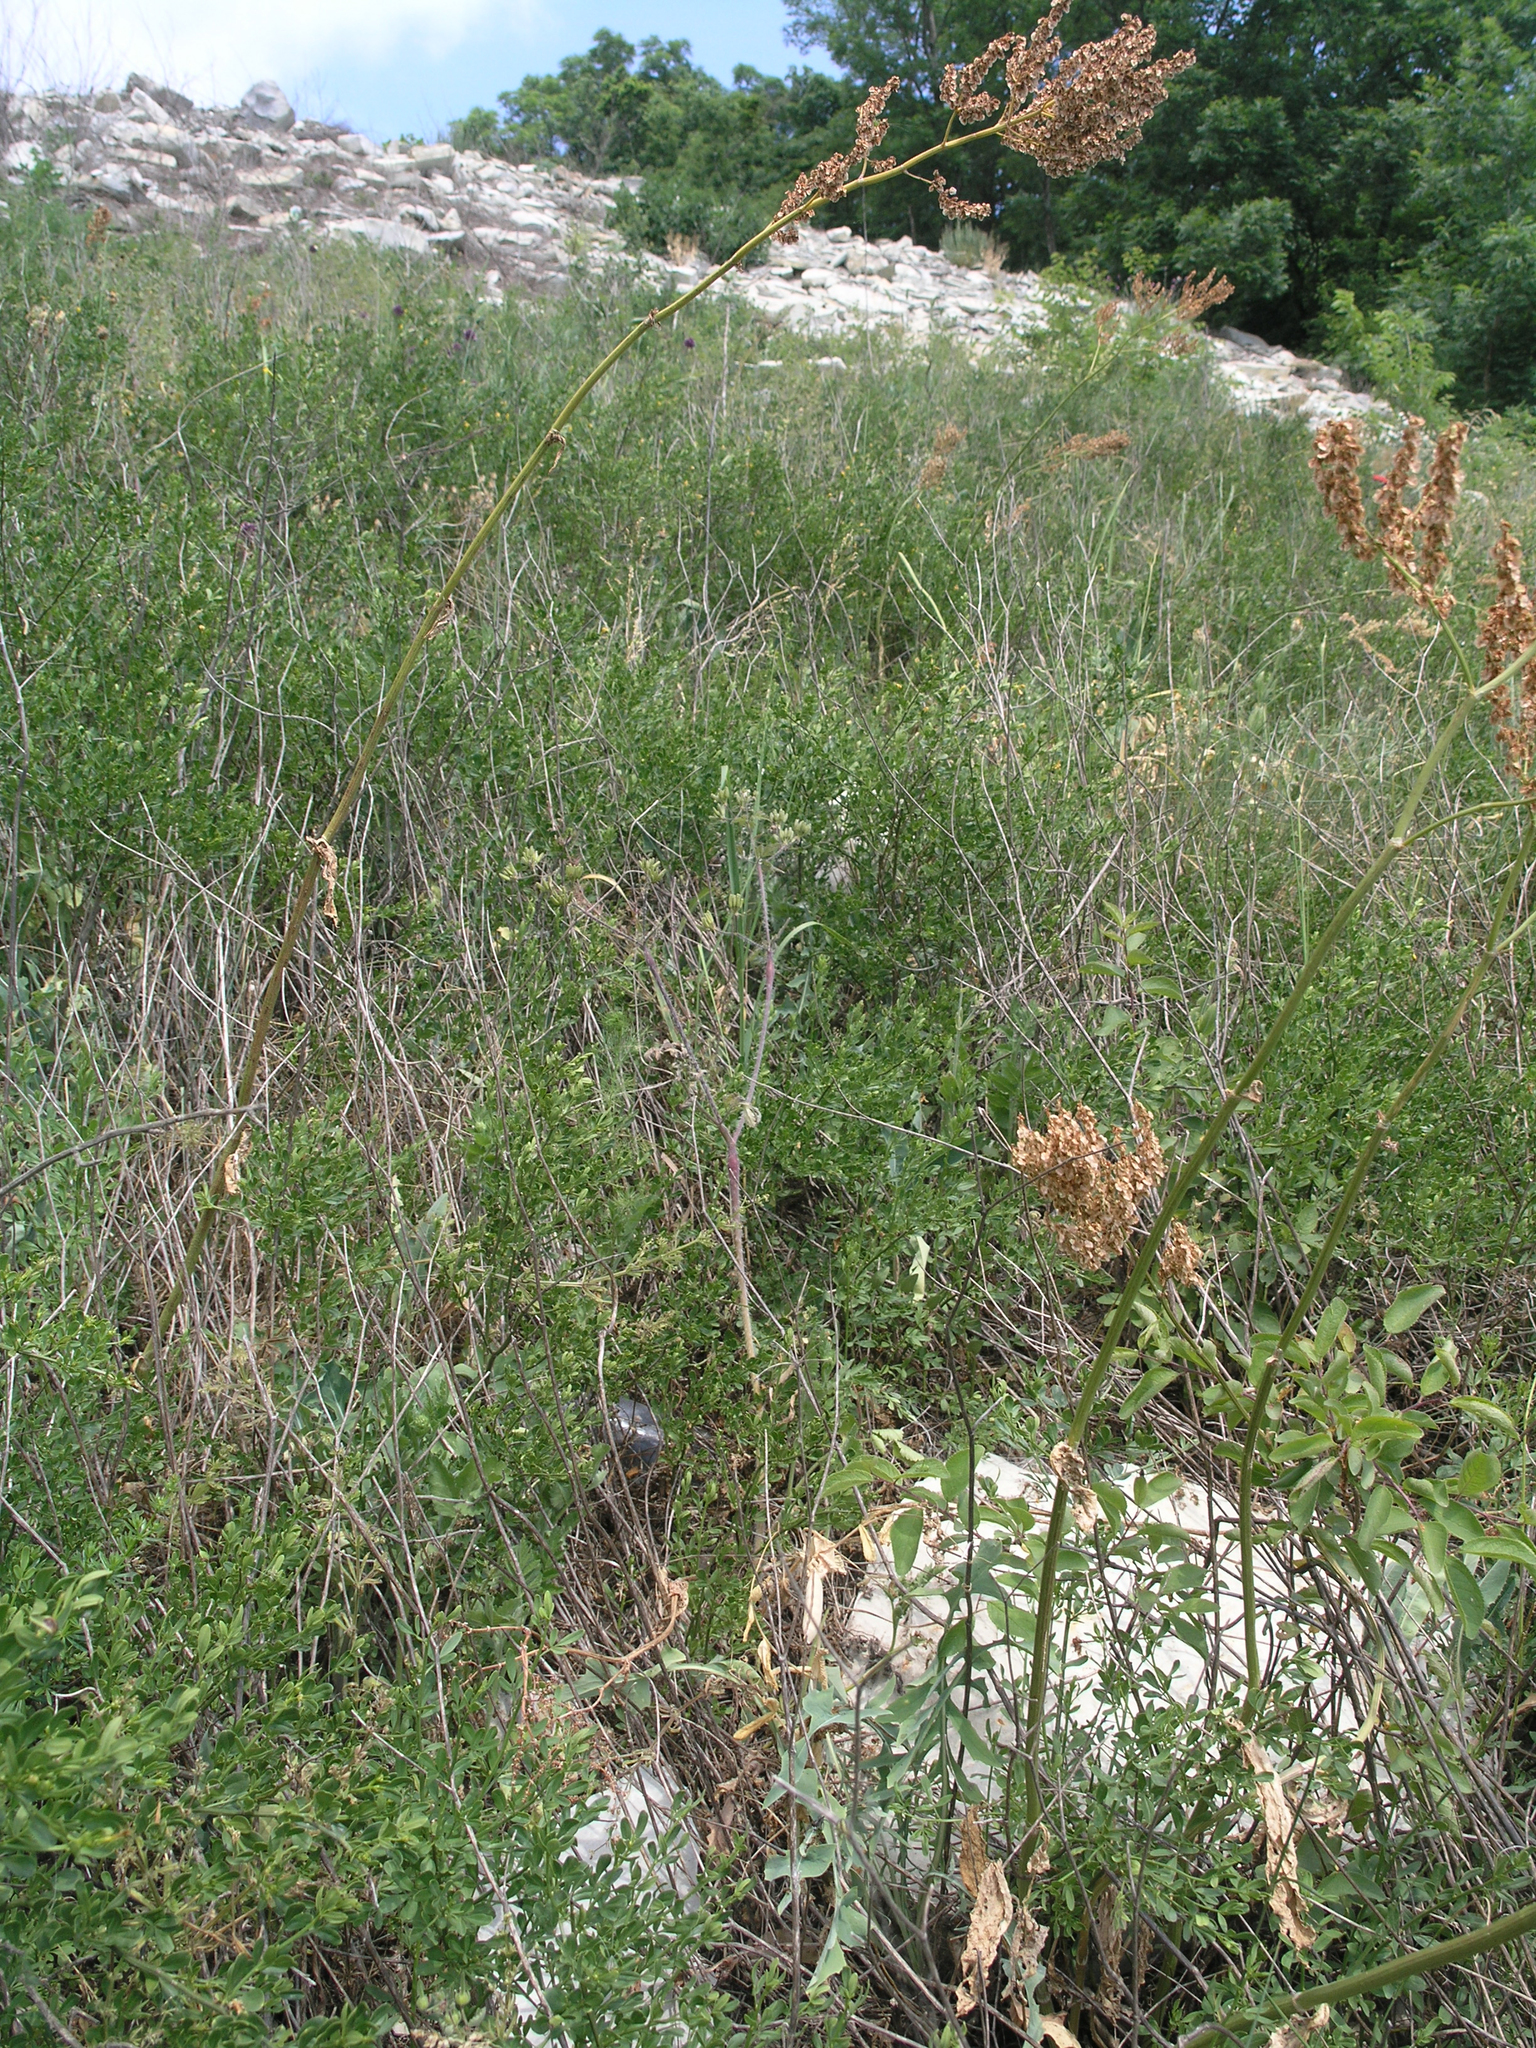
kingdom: Plantae
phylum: Tracheophyta
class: Magnoliopsida
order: Fabales
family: Fabaceae
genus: Lathyrus
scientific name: Lathyrus oleraceus
